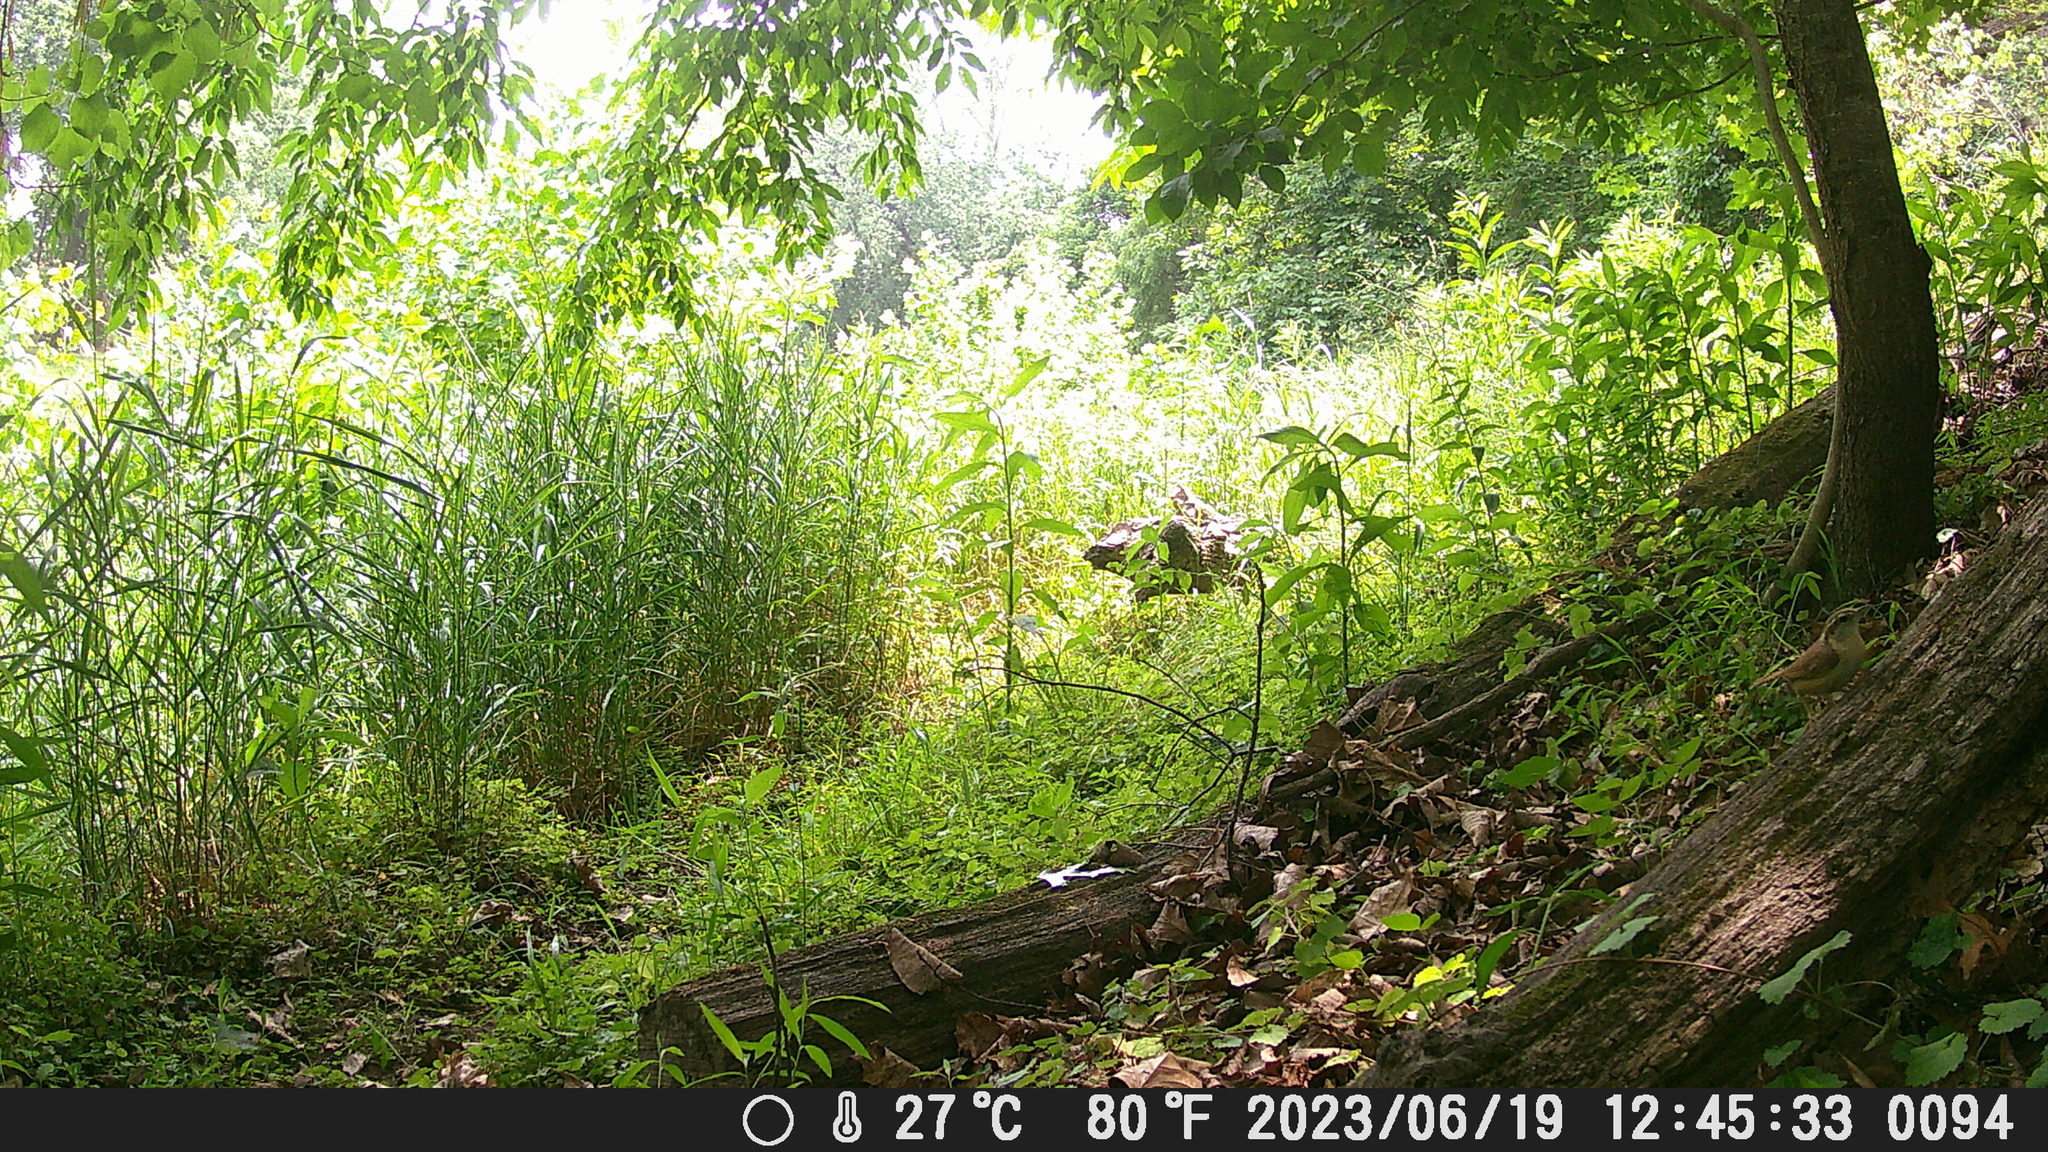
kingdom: Animalia
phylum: Chordata
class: Aves
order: Passeriformes
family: Troglodytidae
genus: Thryothorus
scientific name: Thryothorus ludovicianus
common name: Carolina wren
